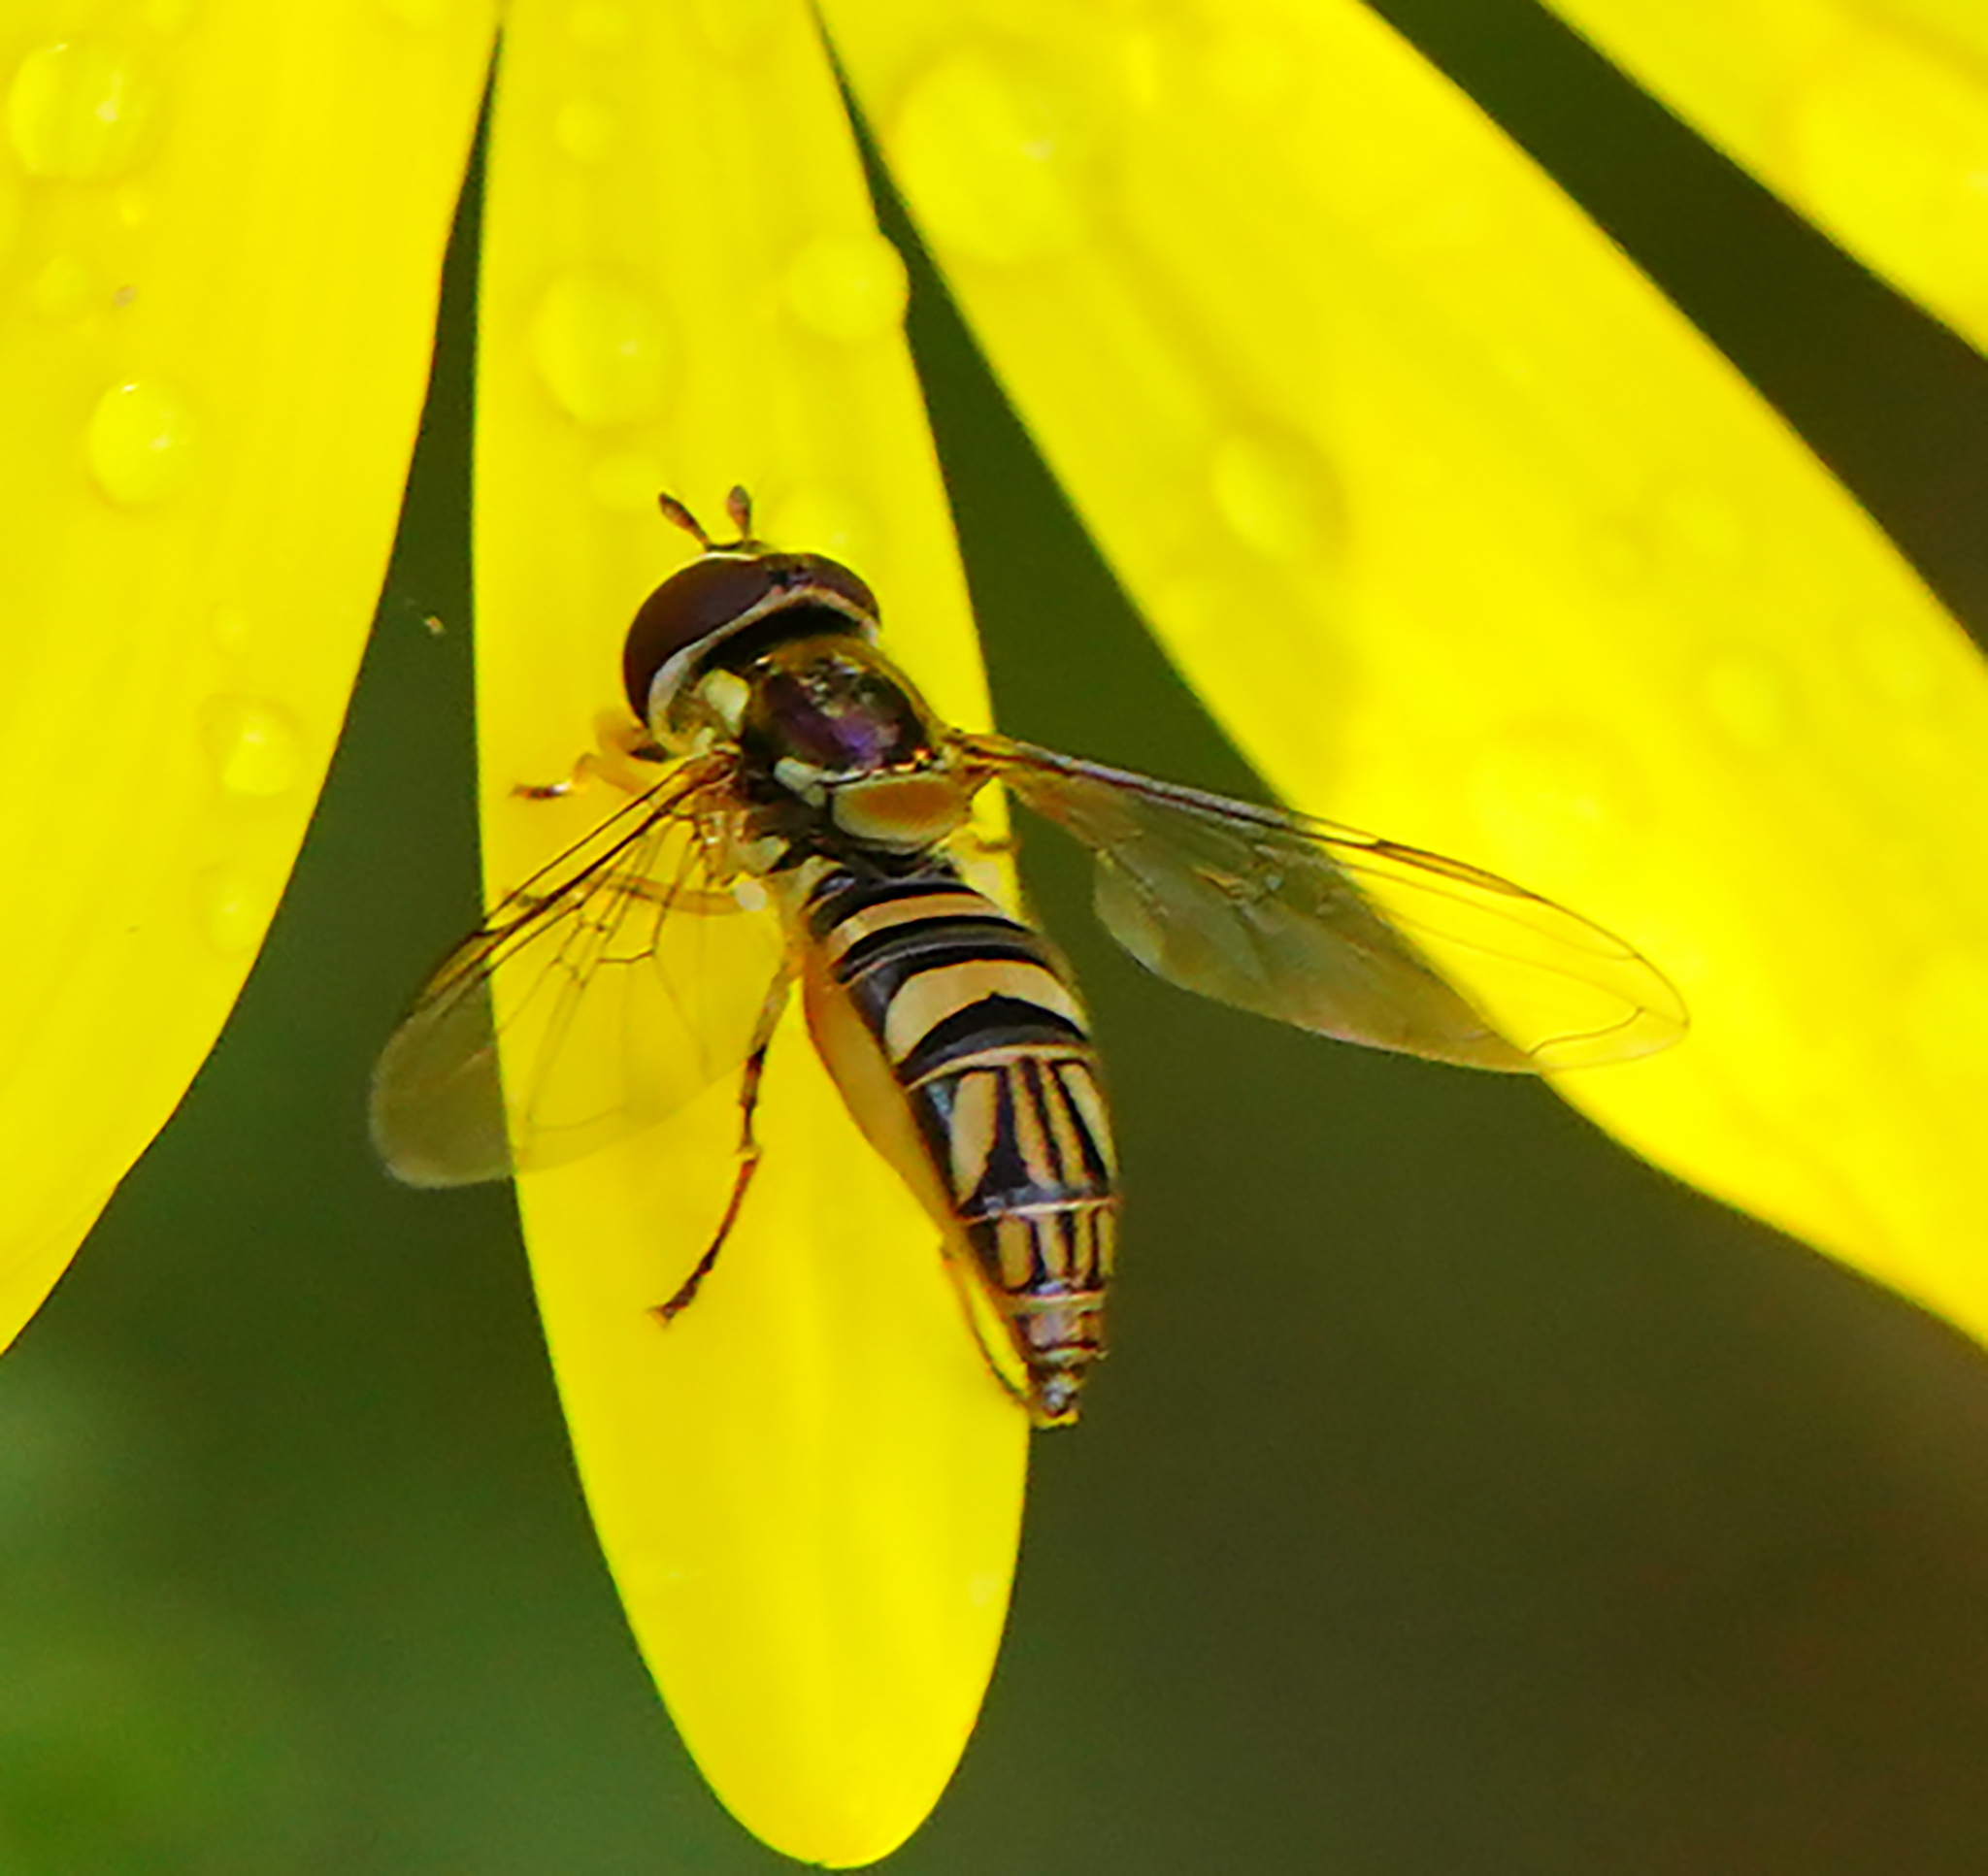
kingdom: Animalia
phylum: Arthropoda
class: Insecta
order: Diptera
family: Syrphidae
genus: Allograpta
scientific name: Allograpta obliqua
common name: Common oblique syrphid
